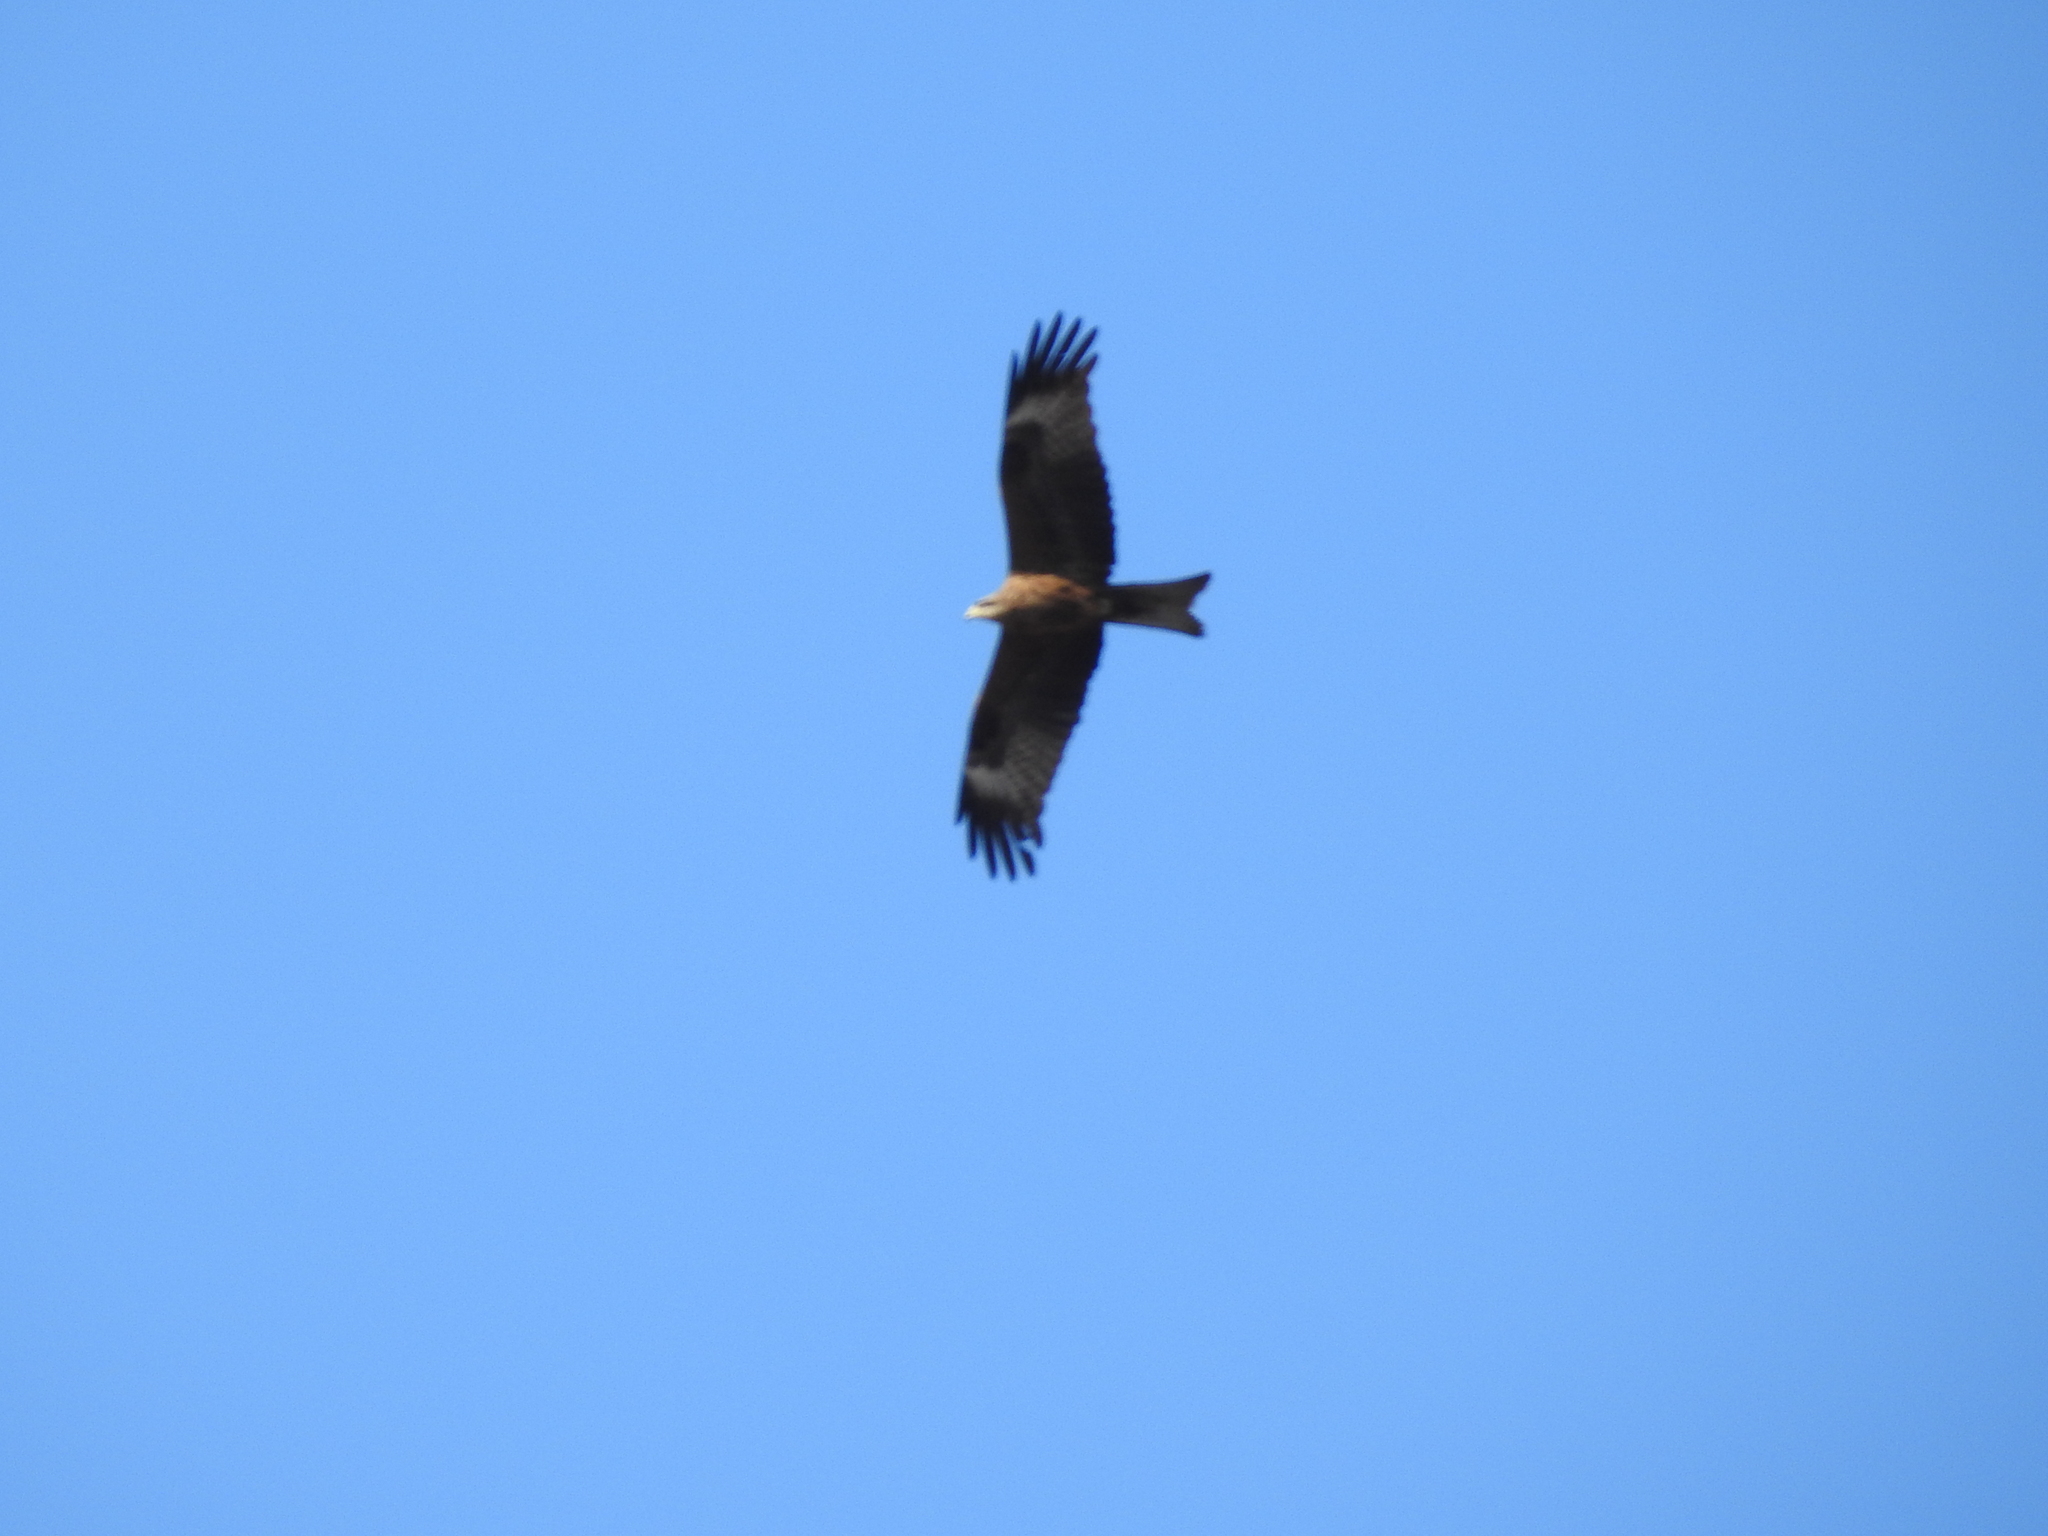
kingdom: Animalia
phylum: Chordata
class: Aves
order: Accipitriformes
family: Accipitridae
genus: Milvus
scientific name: Milvus migrans
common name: Black kite
